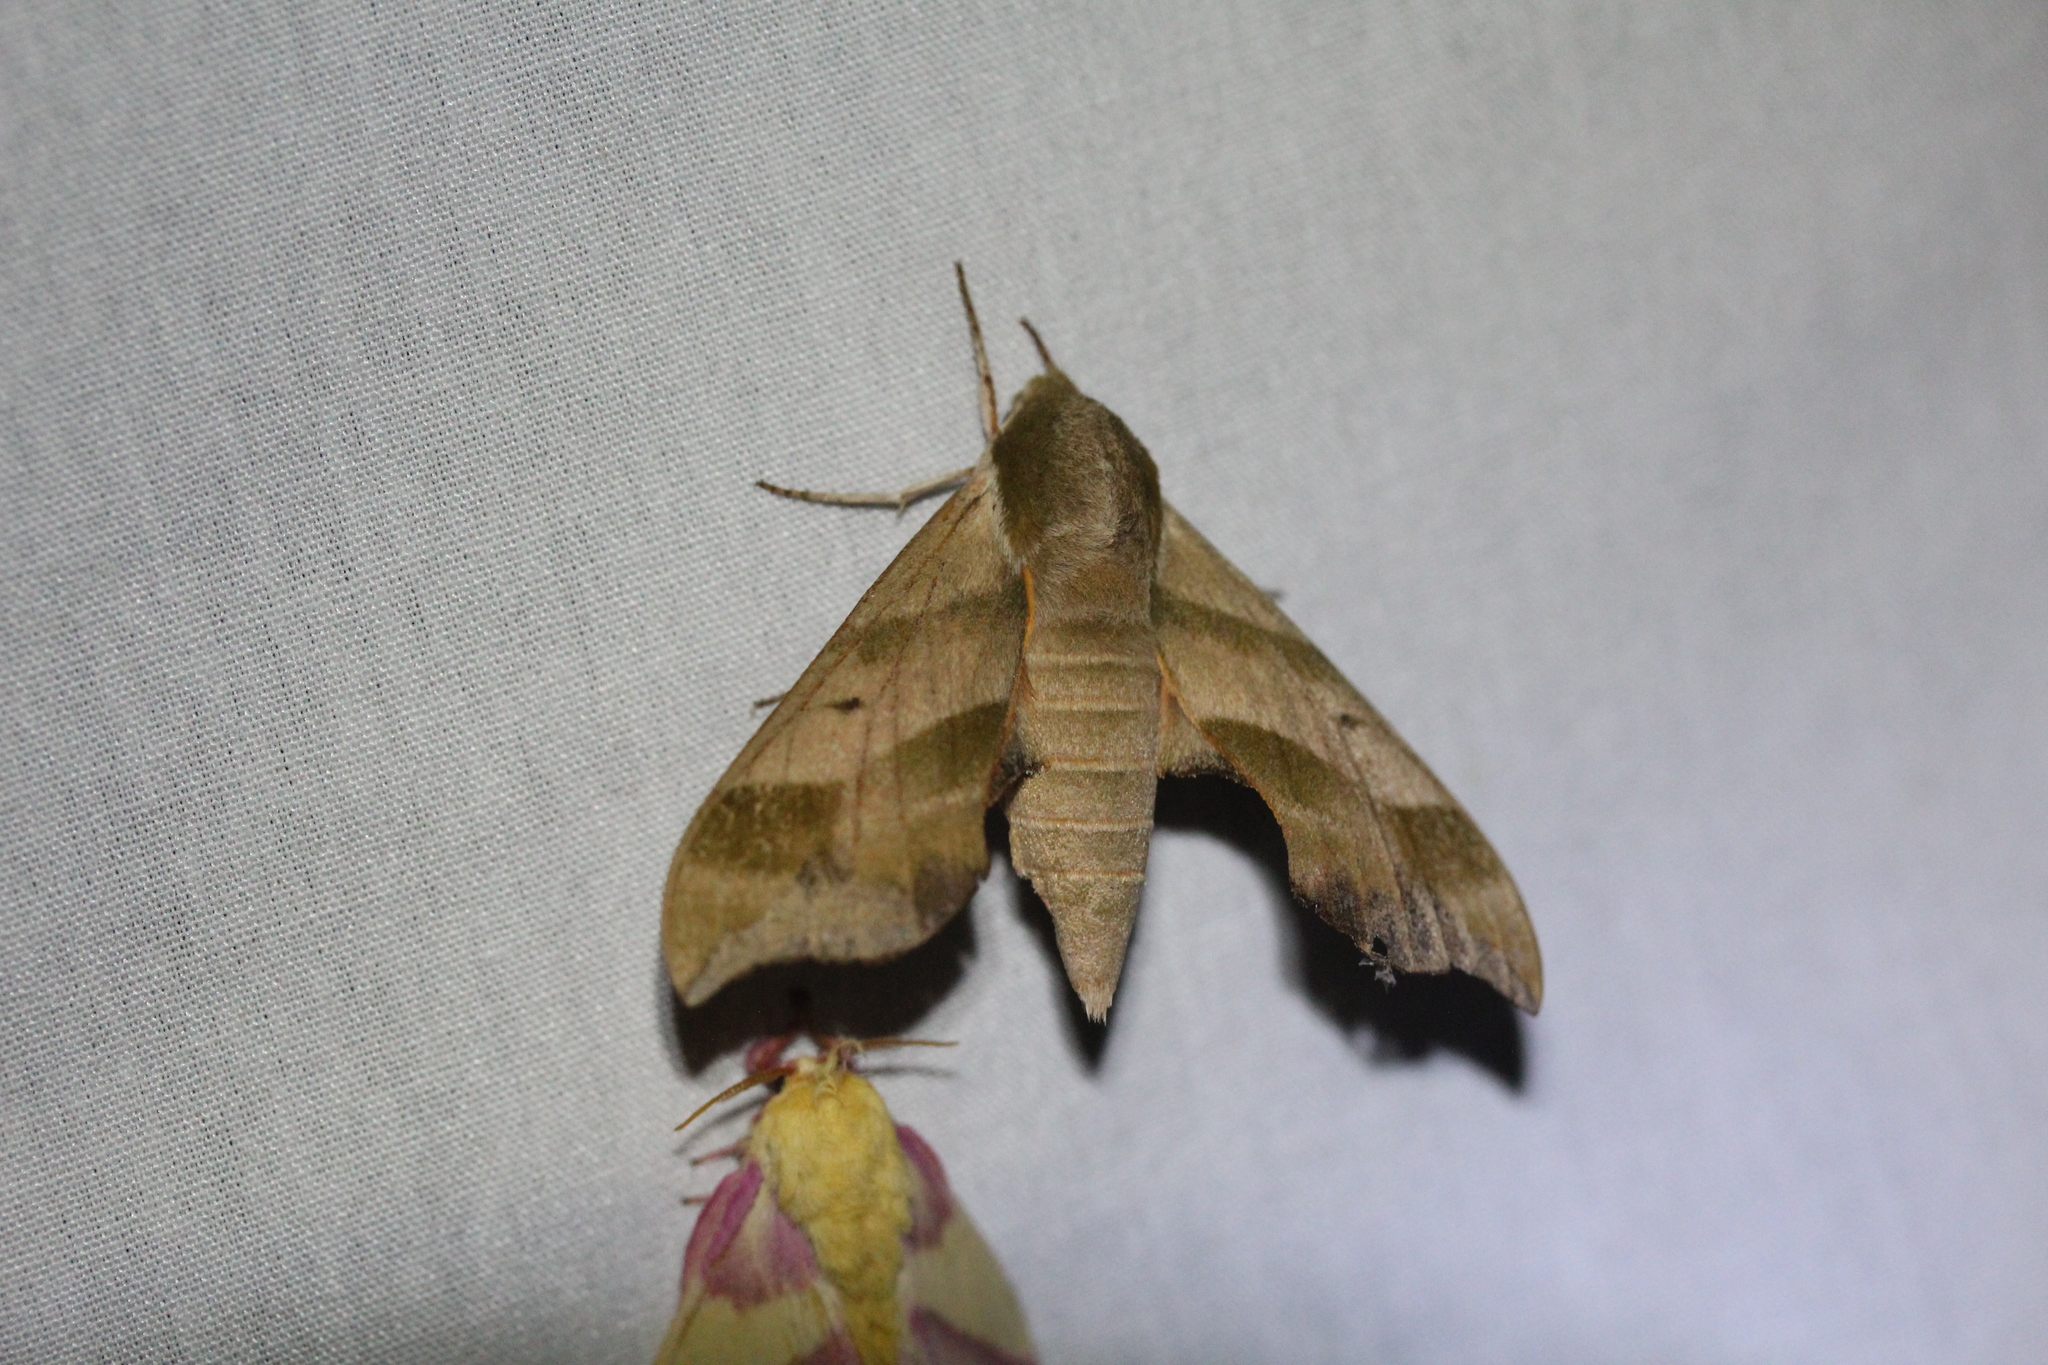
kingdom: Animalia
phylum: Arthropoda
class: Insecta
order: Lepidoptera
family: Sphingidae
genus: Darapsa
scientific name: Darapsa myron
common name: Hog sphinx
